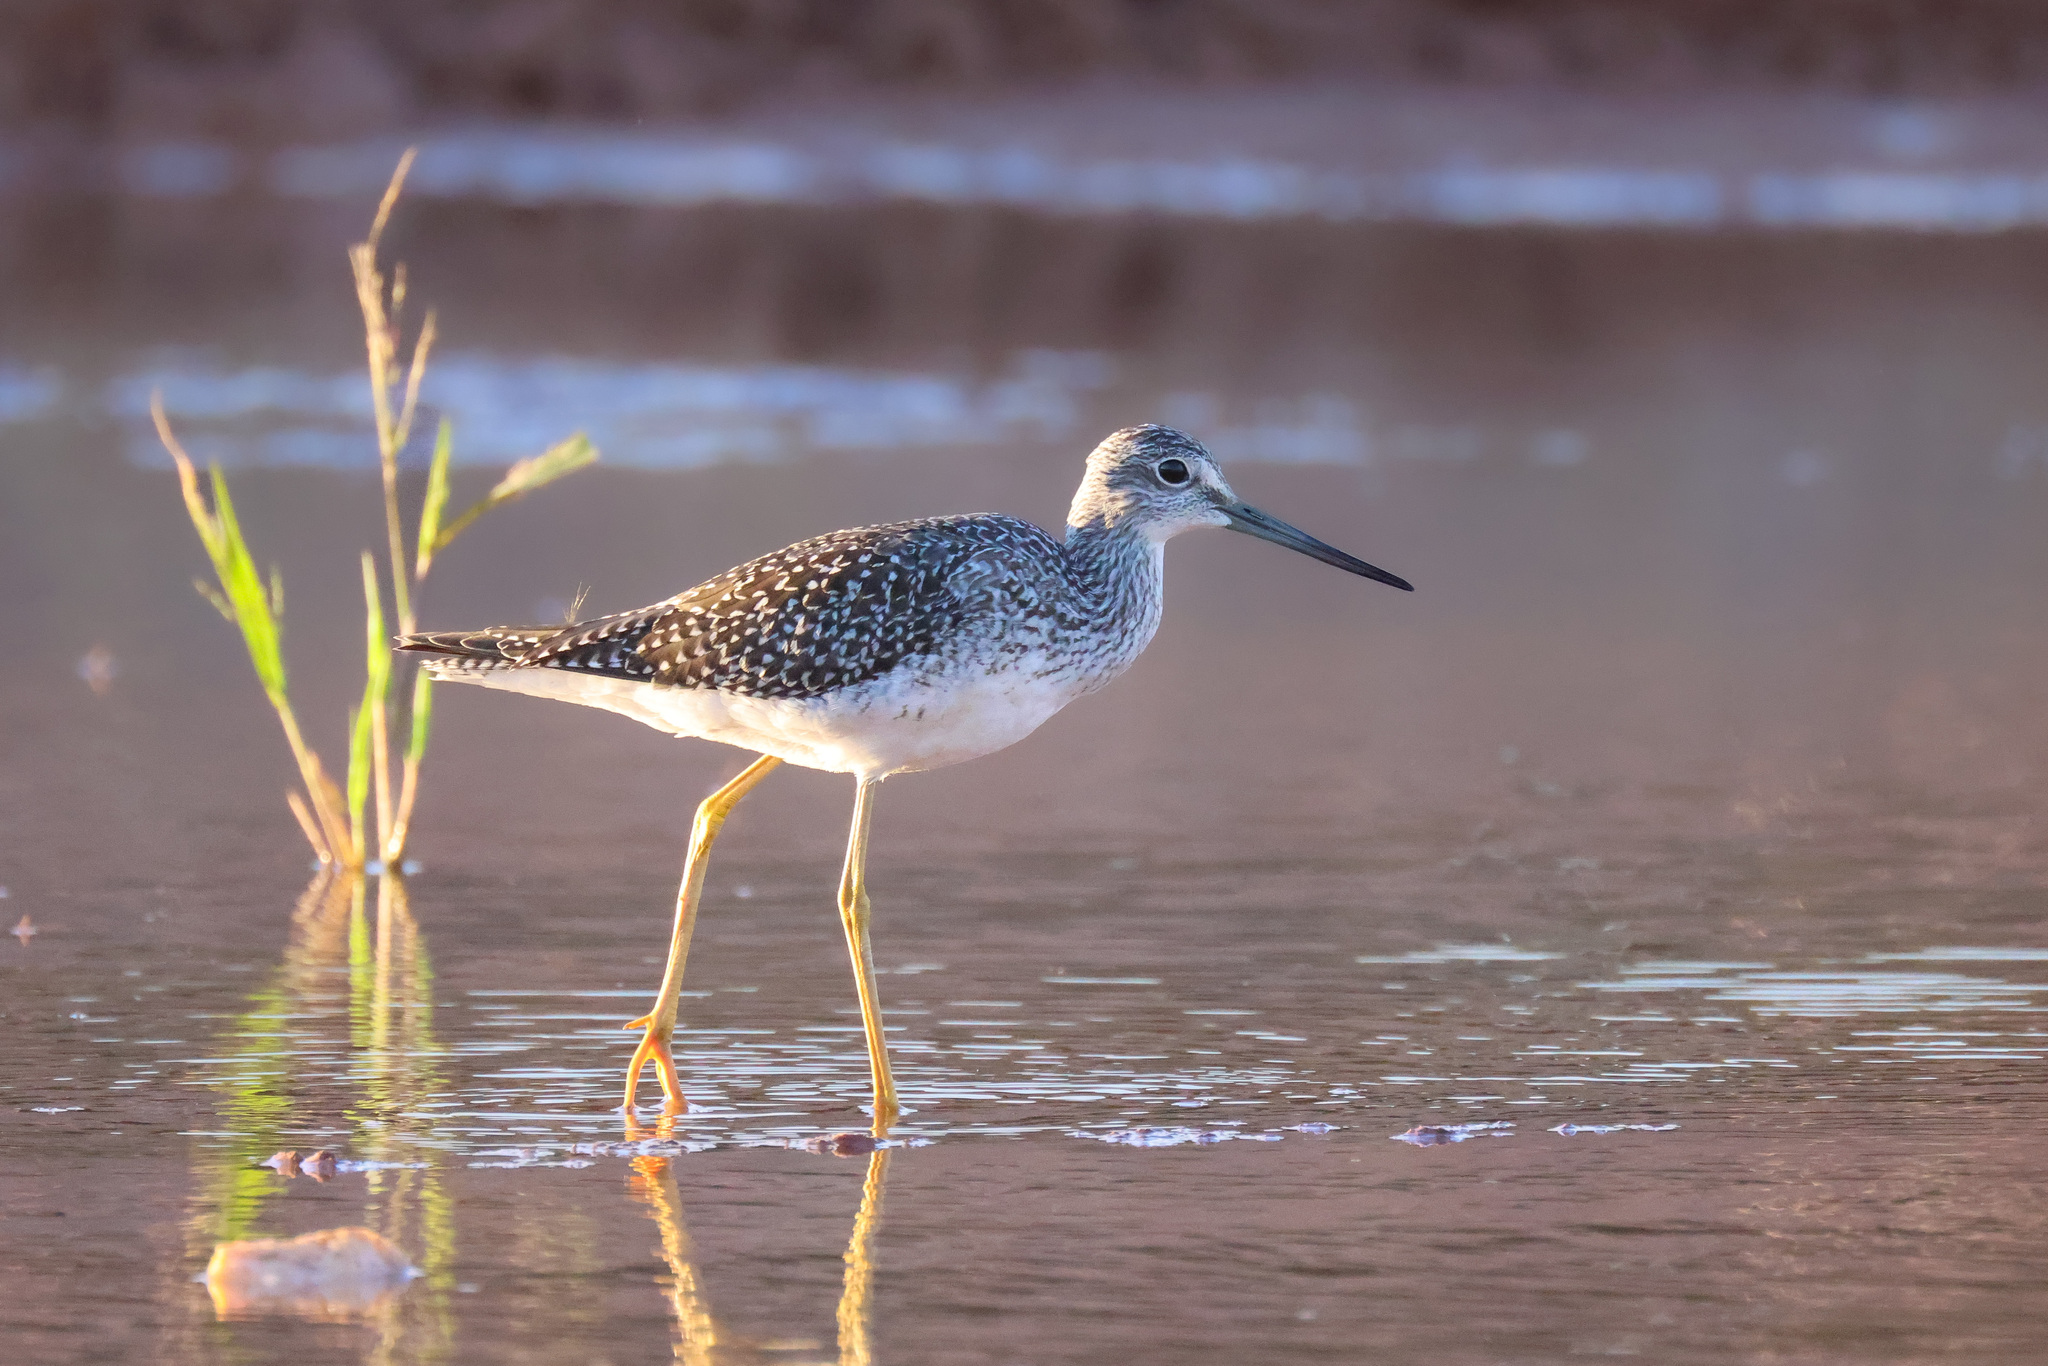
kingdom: Animalia
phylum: Chordata
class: Aves
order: Charadriiformes
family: Scolopacidae
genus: Tringa
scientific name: Tringa melanoleuca
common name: Greater yellowlegs
